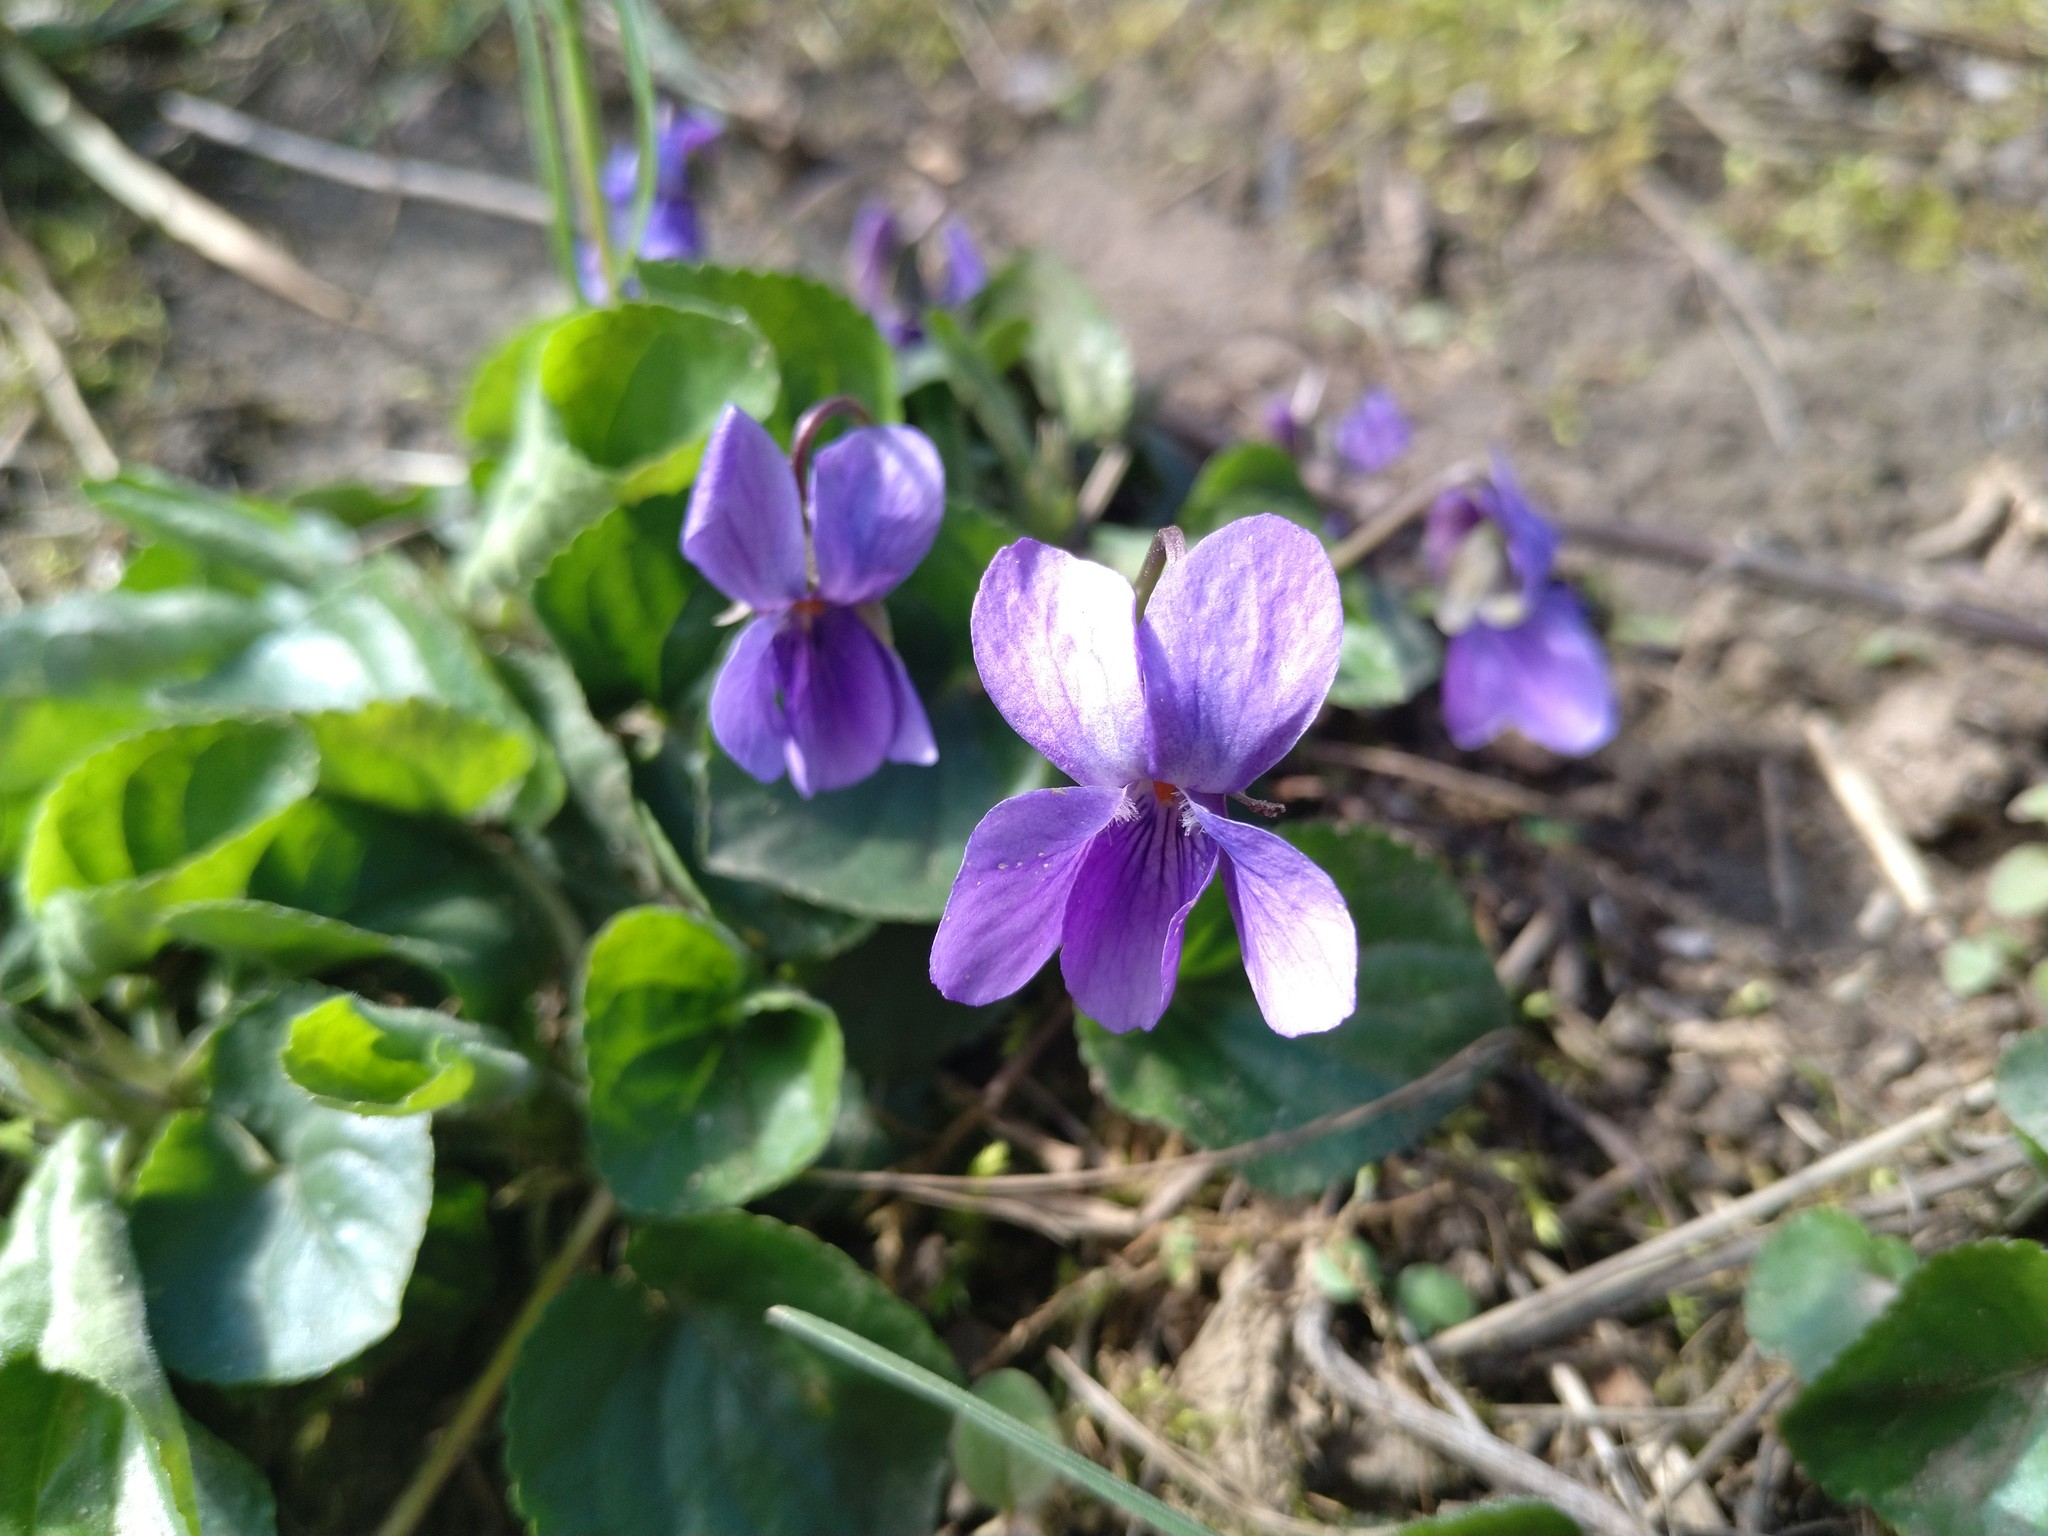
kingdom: Plantae
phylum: Tracheophyta
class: Magnoliopsida
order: Malpighiales
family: Violaceae
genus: Viola
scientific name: Viola odorata
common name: Sweet violet
